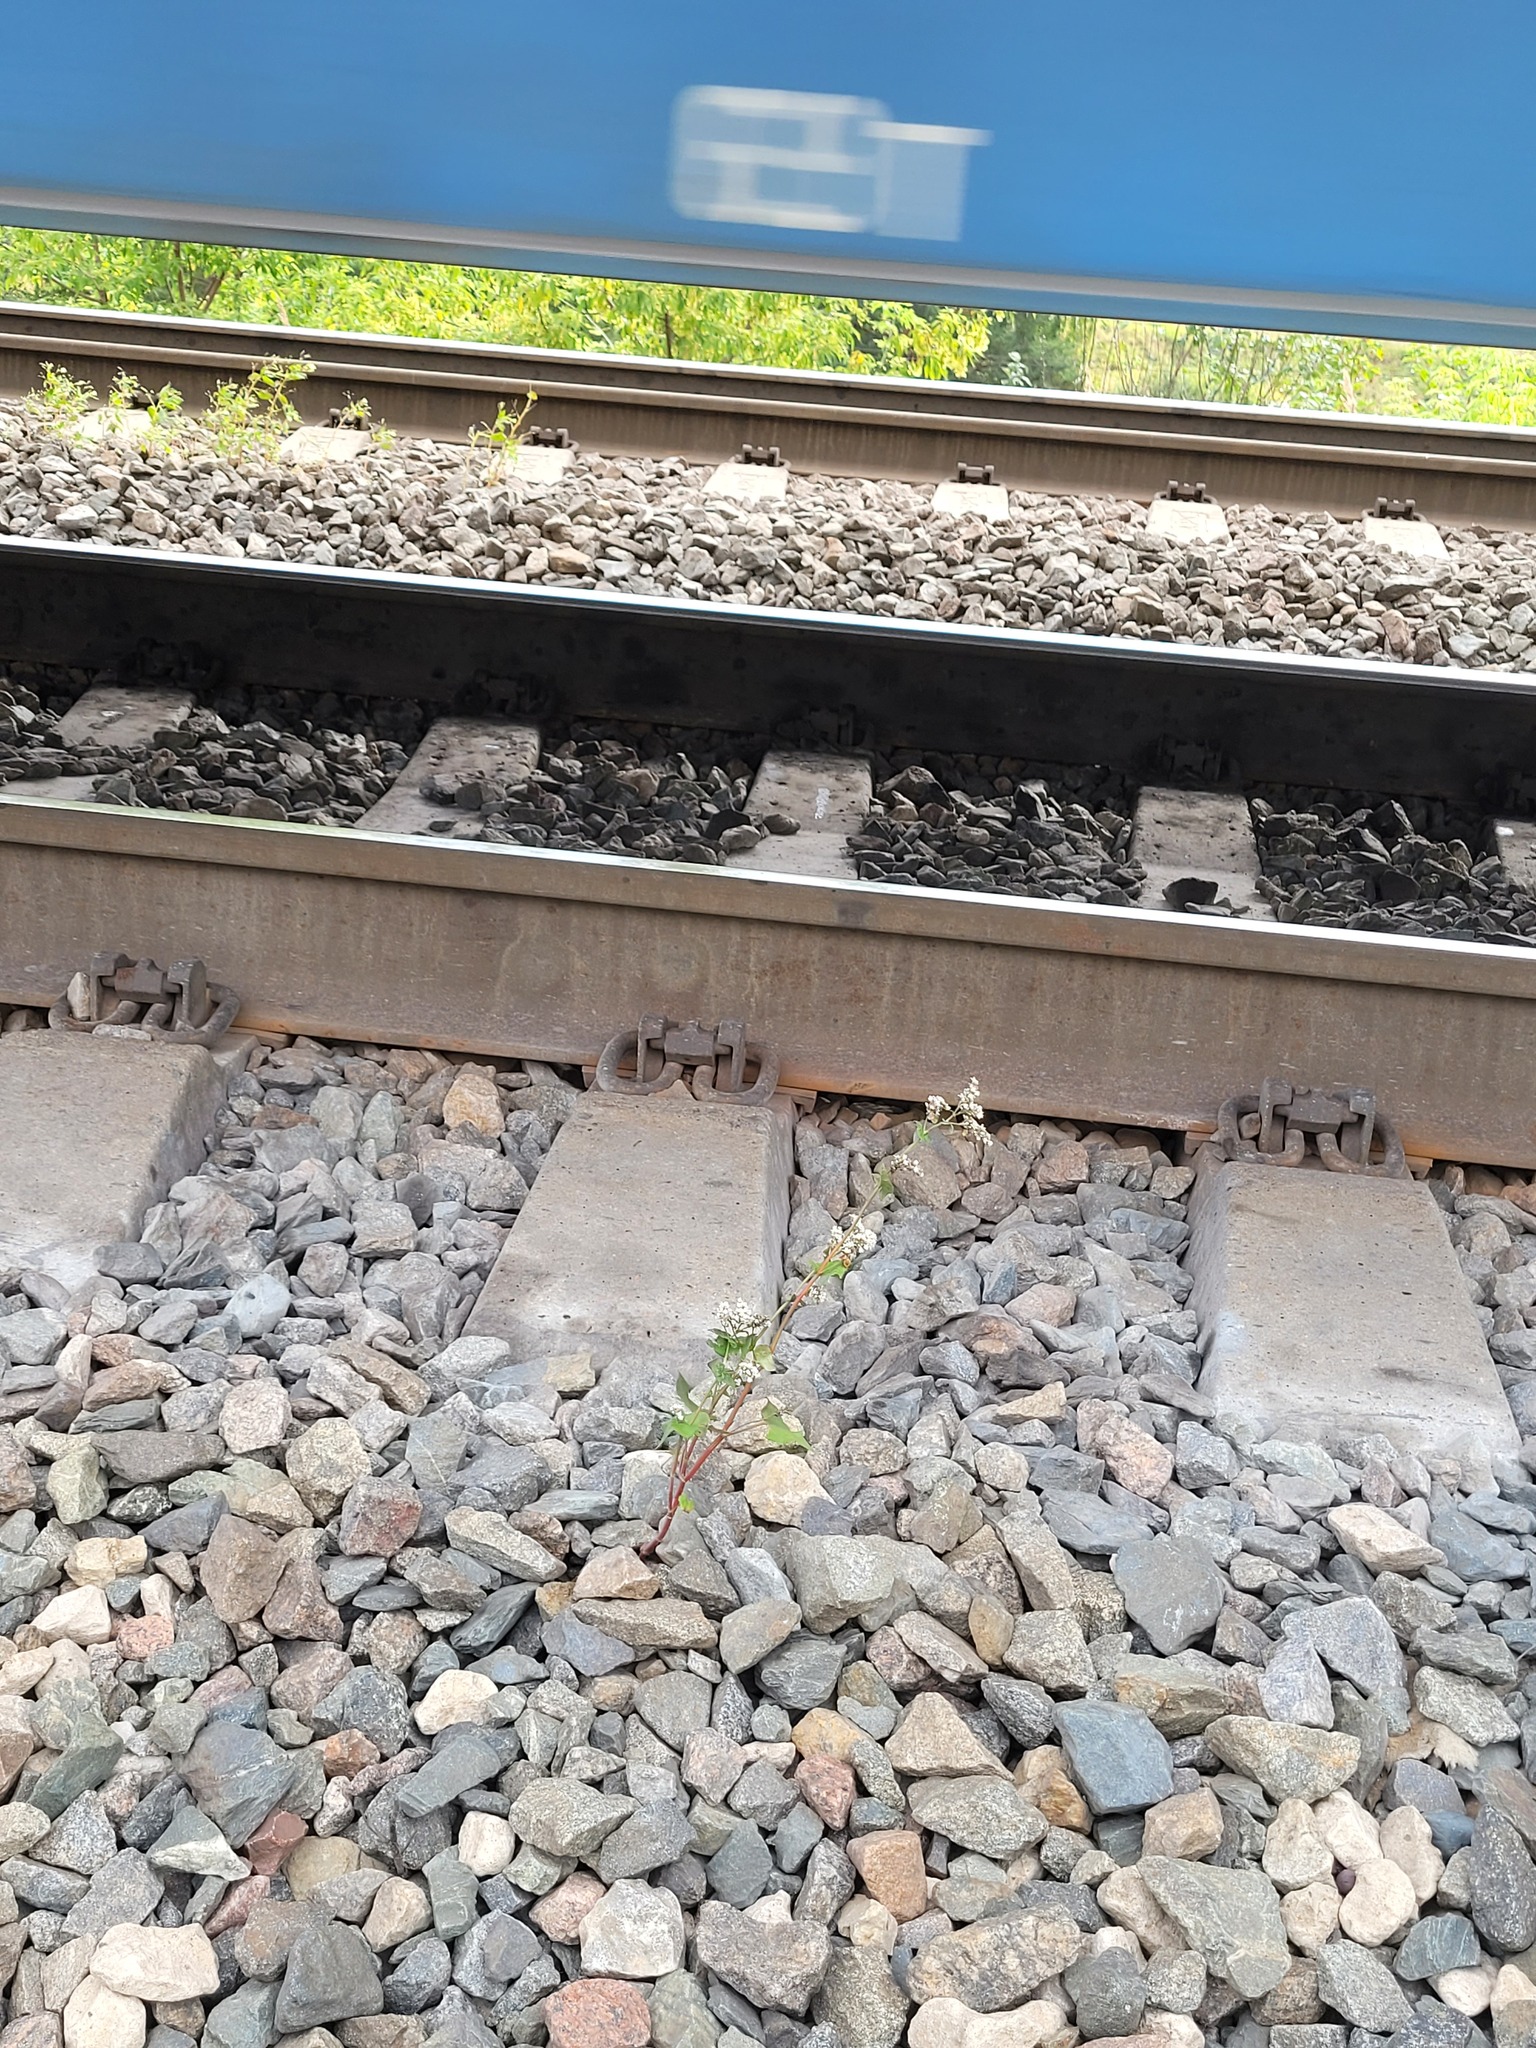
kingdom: Plantae
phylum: Tracheophyta
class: Magnoliopsida
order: Caryophyllales
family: Polygonaceae
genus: Fagopyrum
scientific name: Fagopyrum esculentum
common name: Buckwheat
